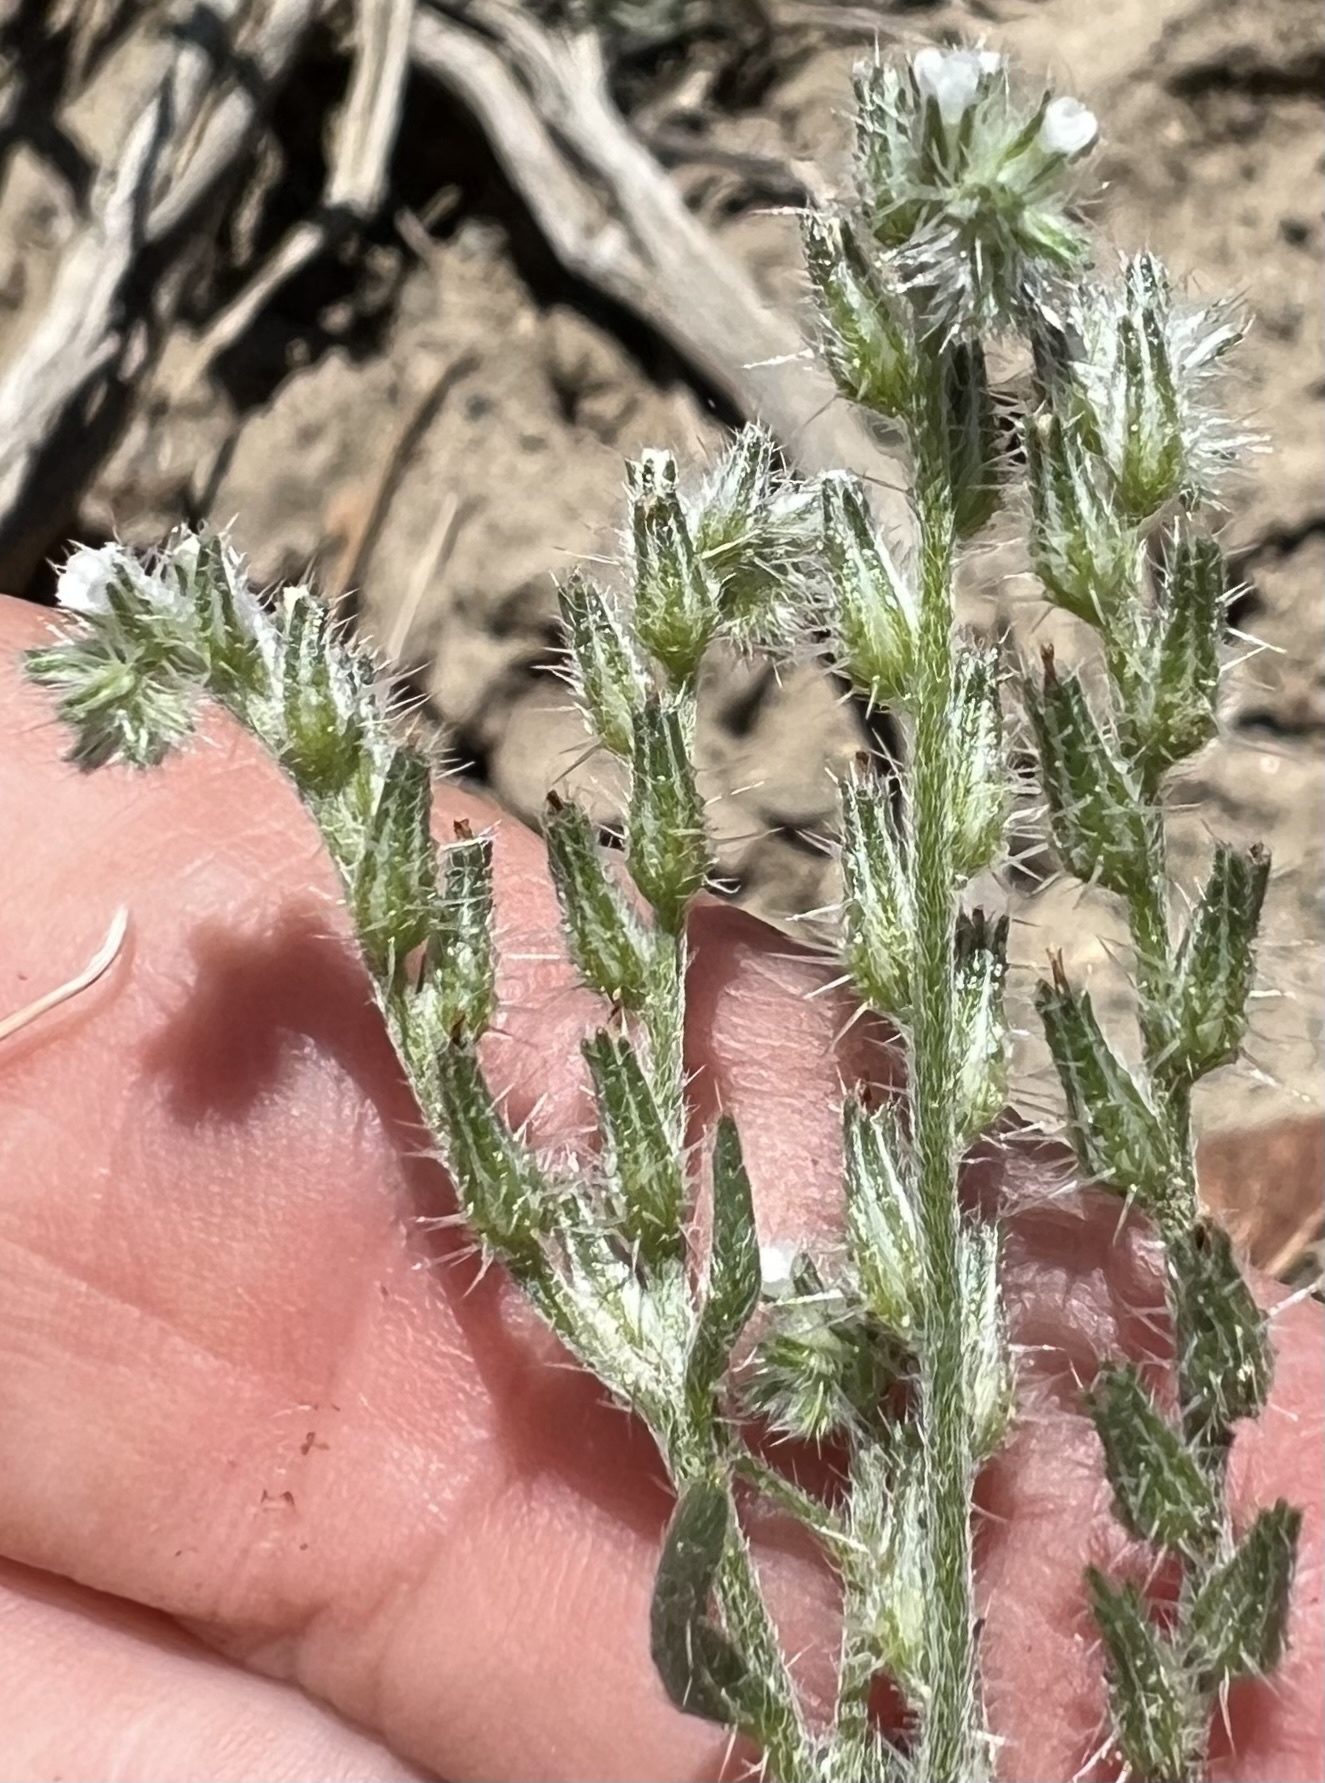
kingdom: Plantae
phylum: Tracheophyta
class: Magnoliopsida
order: Boraginales
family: Boraginaceae
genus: Cryptantha
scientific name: Cryptantha scoparia
